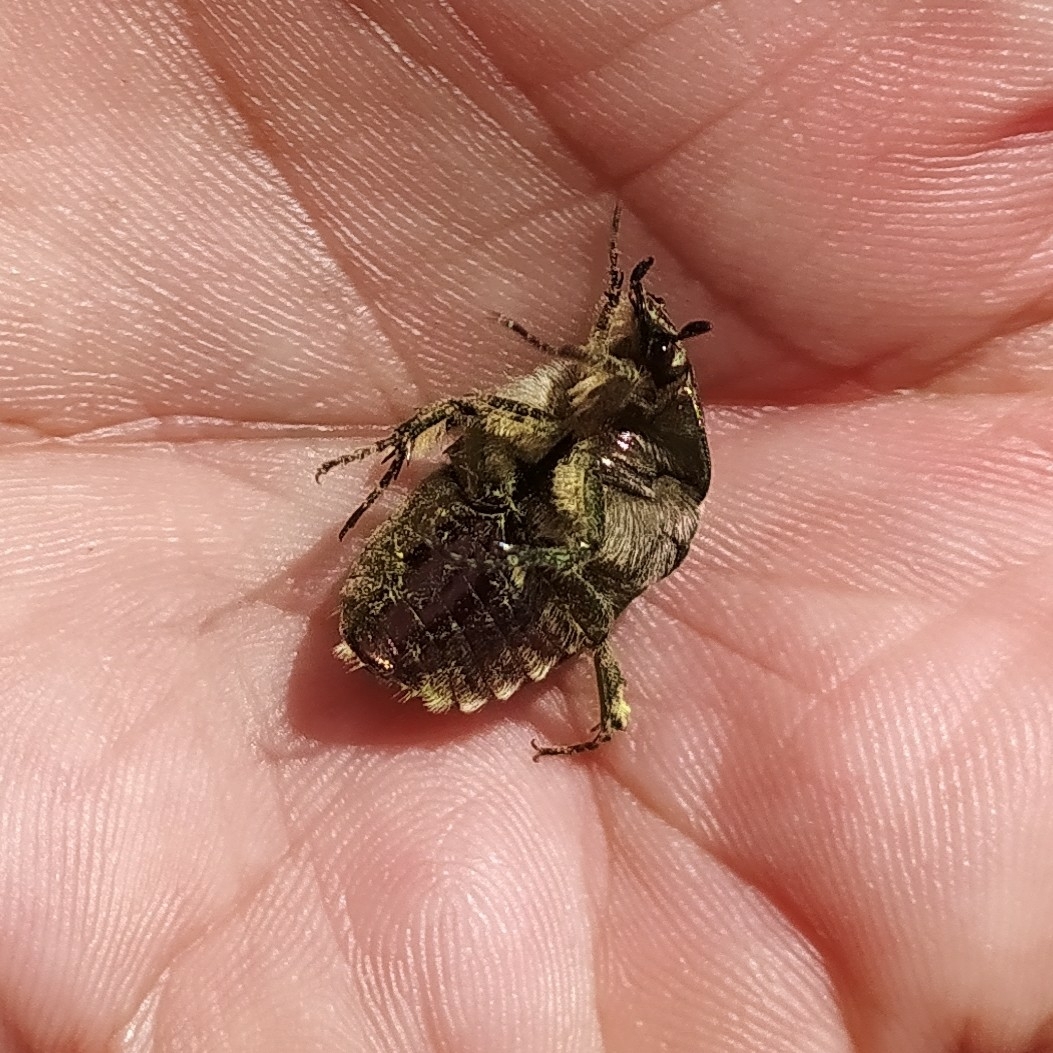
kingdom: Animalia
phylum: Arthropoda
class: Insecta
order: Coleoptera
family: Scarabaeidae
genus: Cetonia
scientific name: Cetonia aurata
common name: Rose chafer
